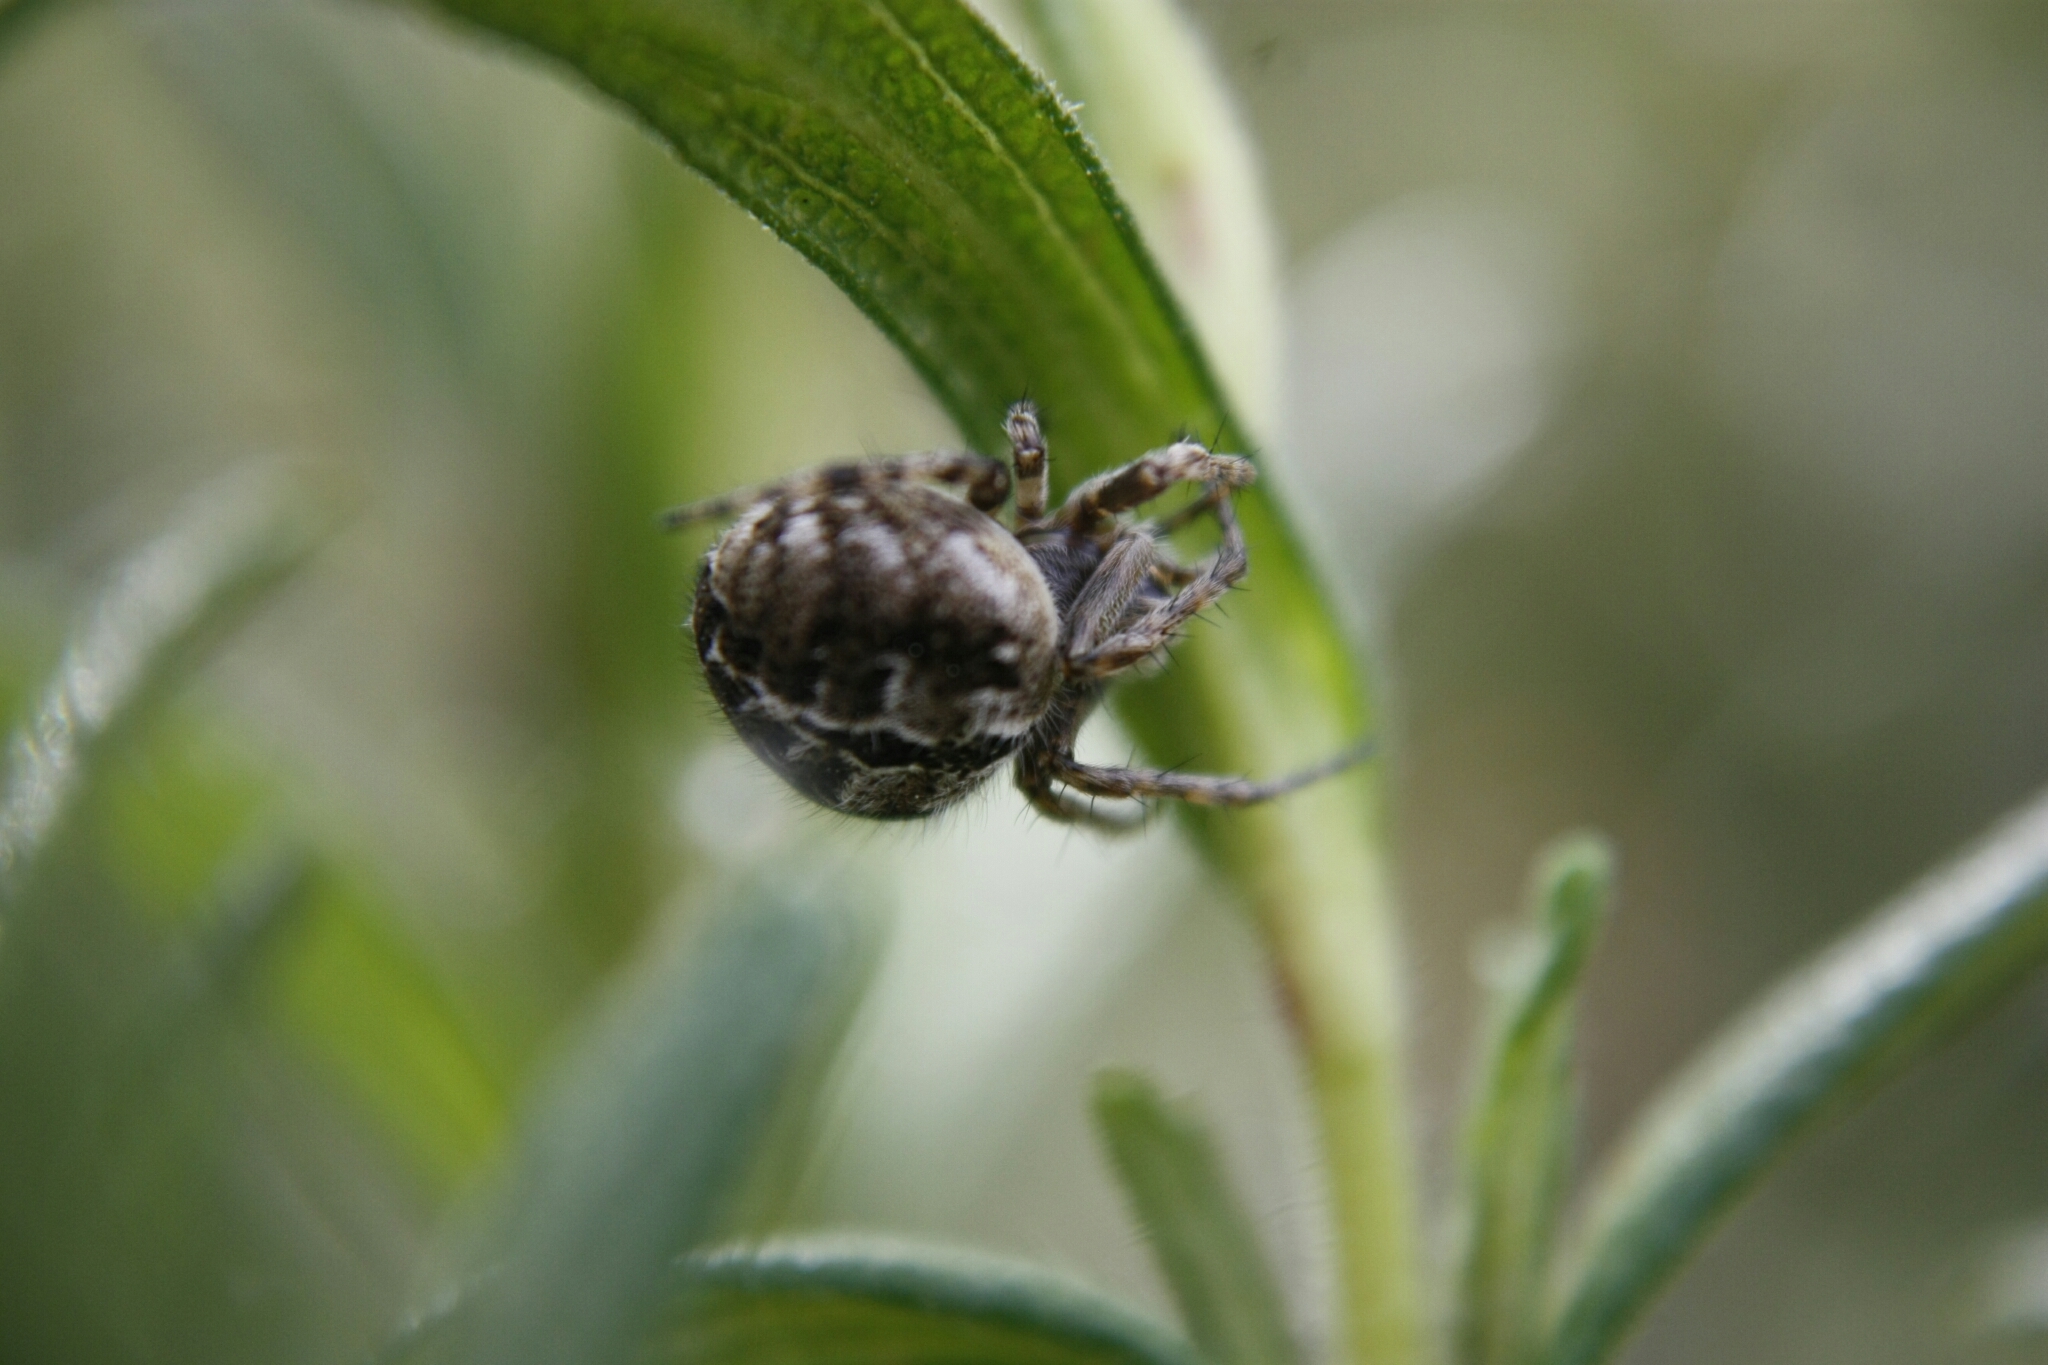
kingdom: Animalia
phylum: Arthropoda
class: Arachnida
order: Araneae
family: Araneidae
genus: Agalenatea
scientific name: Agalenatea redii
